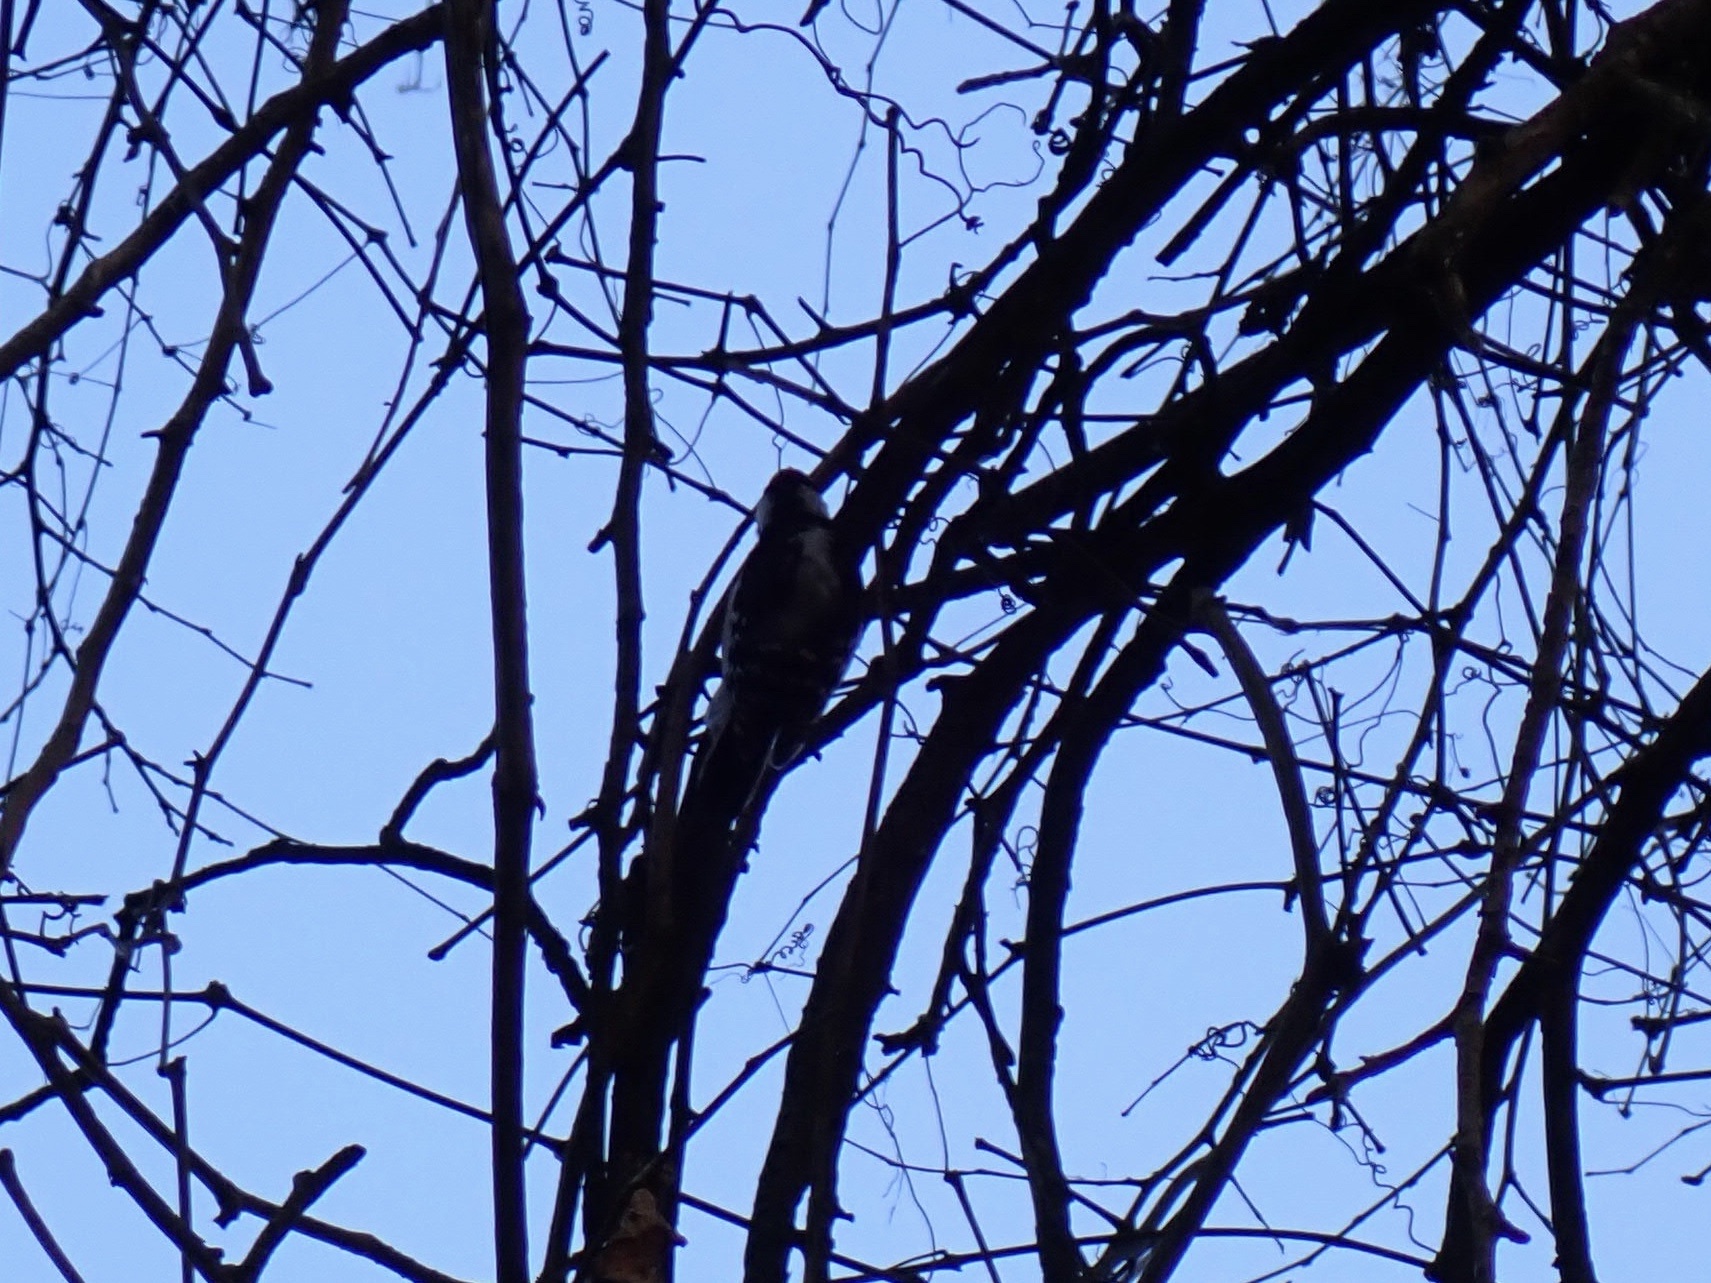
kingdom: Animalia
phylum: Chordata
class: Aves
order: Piciformes
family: Picidae
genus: Dryobates
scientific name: Dryobates pubescens
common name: Downy woodpecker
